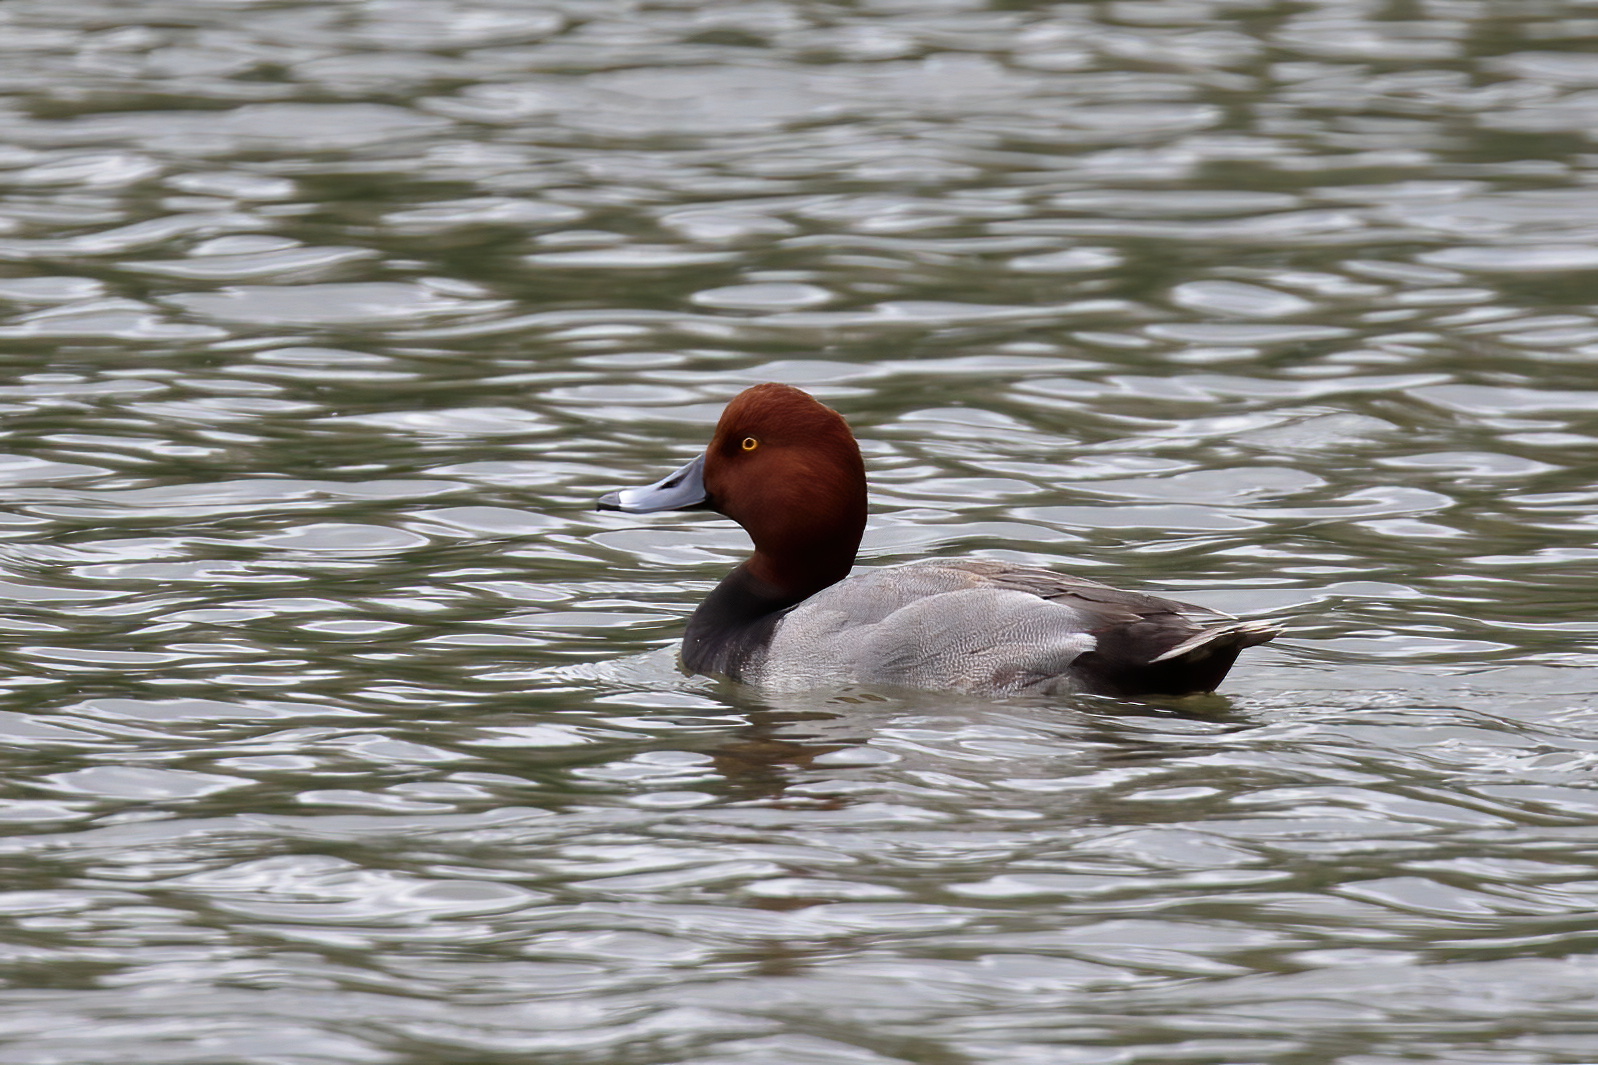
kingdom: Animalia
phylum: Chordata
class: Aves
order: Anseriformes
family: Anatidae
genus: Aythya
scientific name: Aythya americana
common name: Redhead
